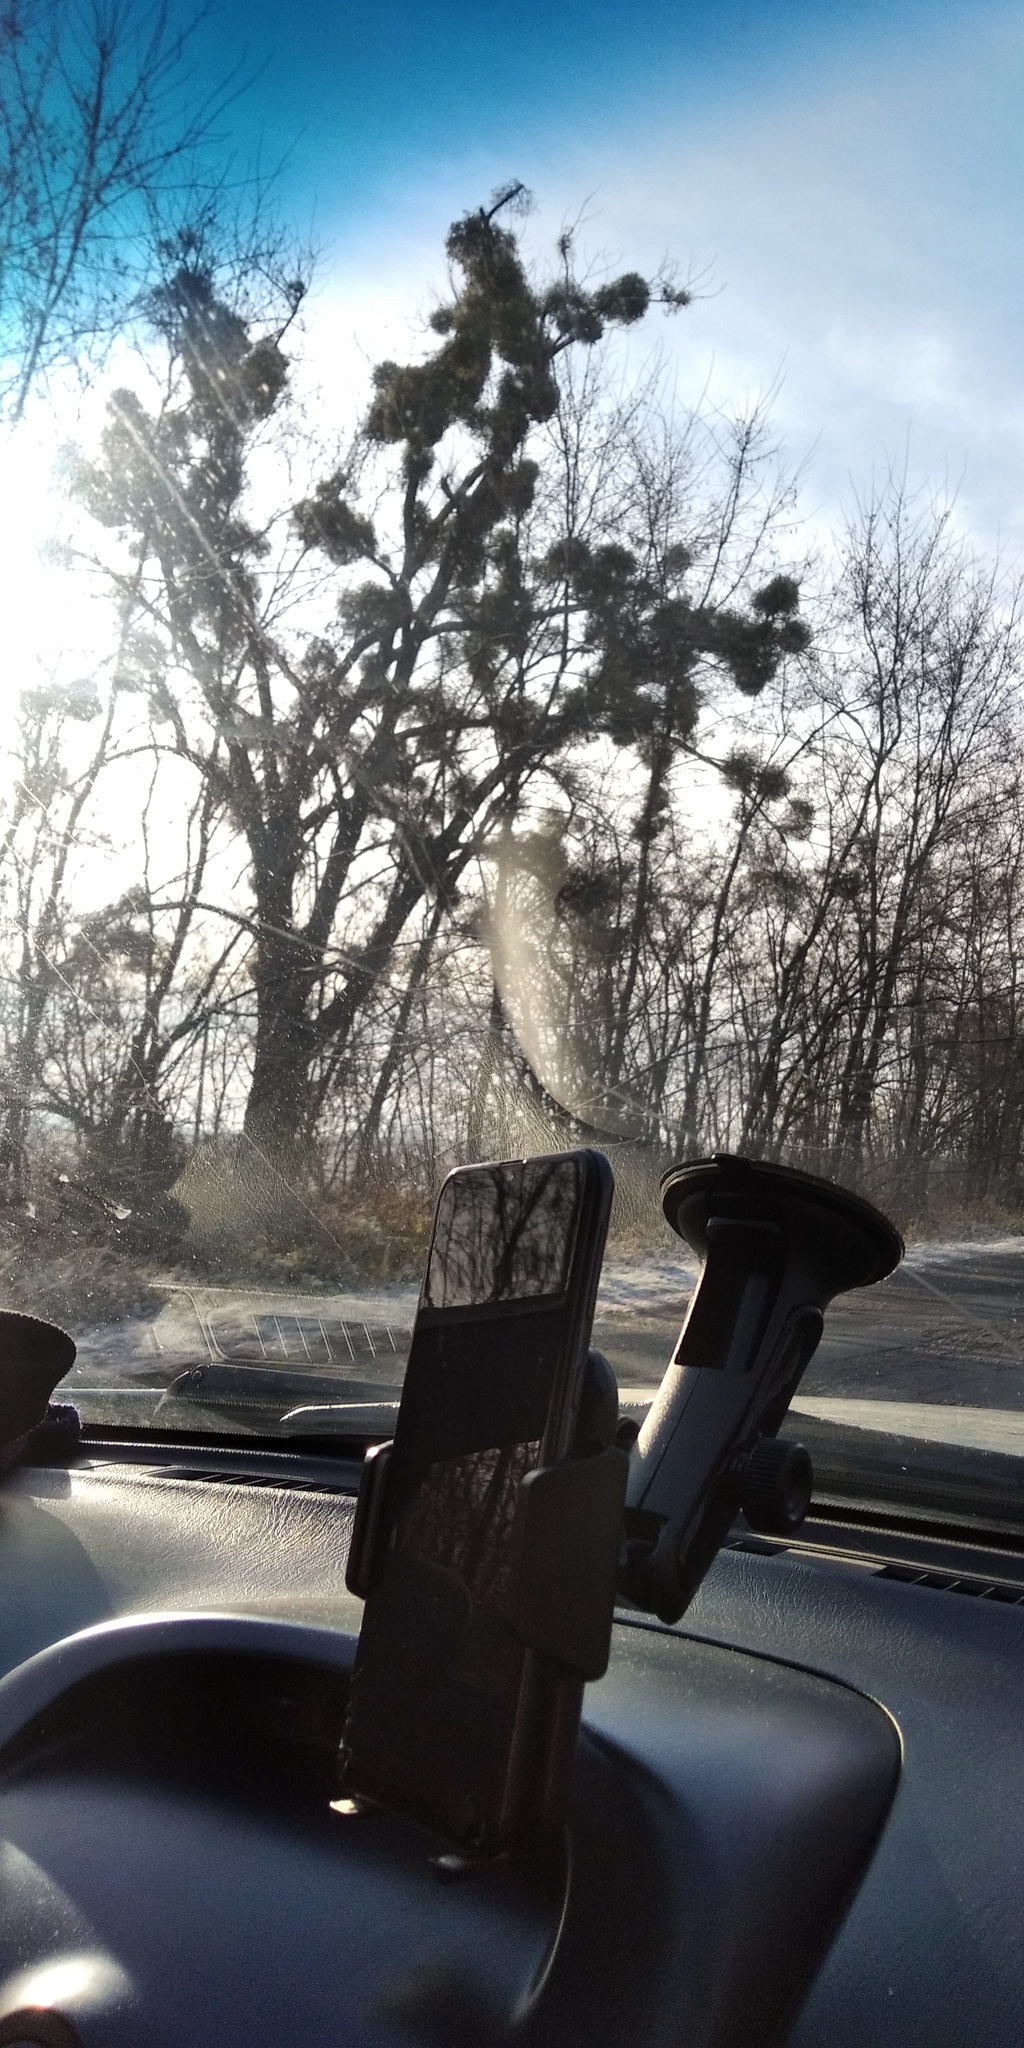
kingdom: Plantae
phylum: Tracheophyta
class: Magnoliopsida
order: Santalales
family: Viscaceae
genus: Viscum
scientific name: Viscum album
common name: Mistletoe
